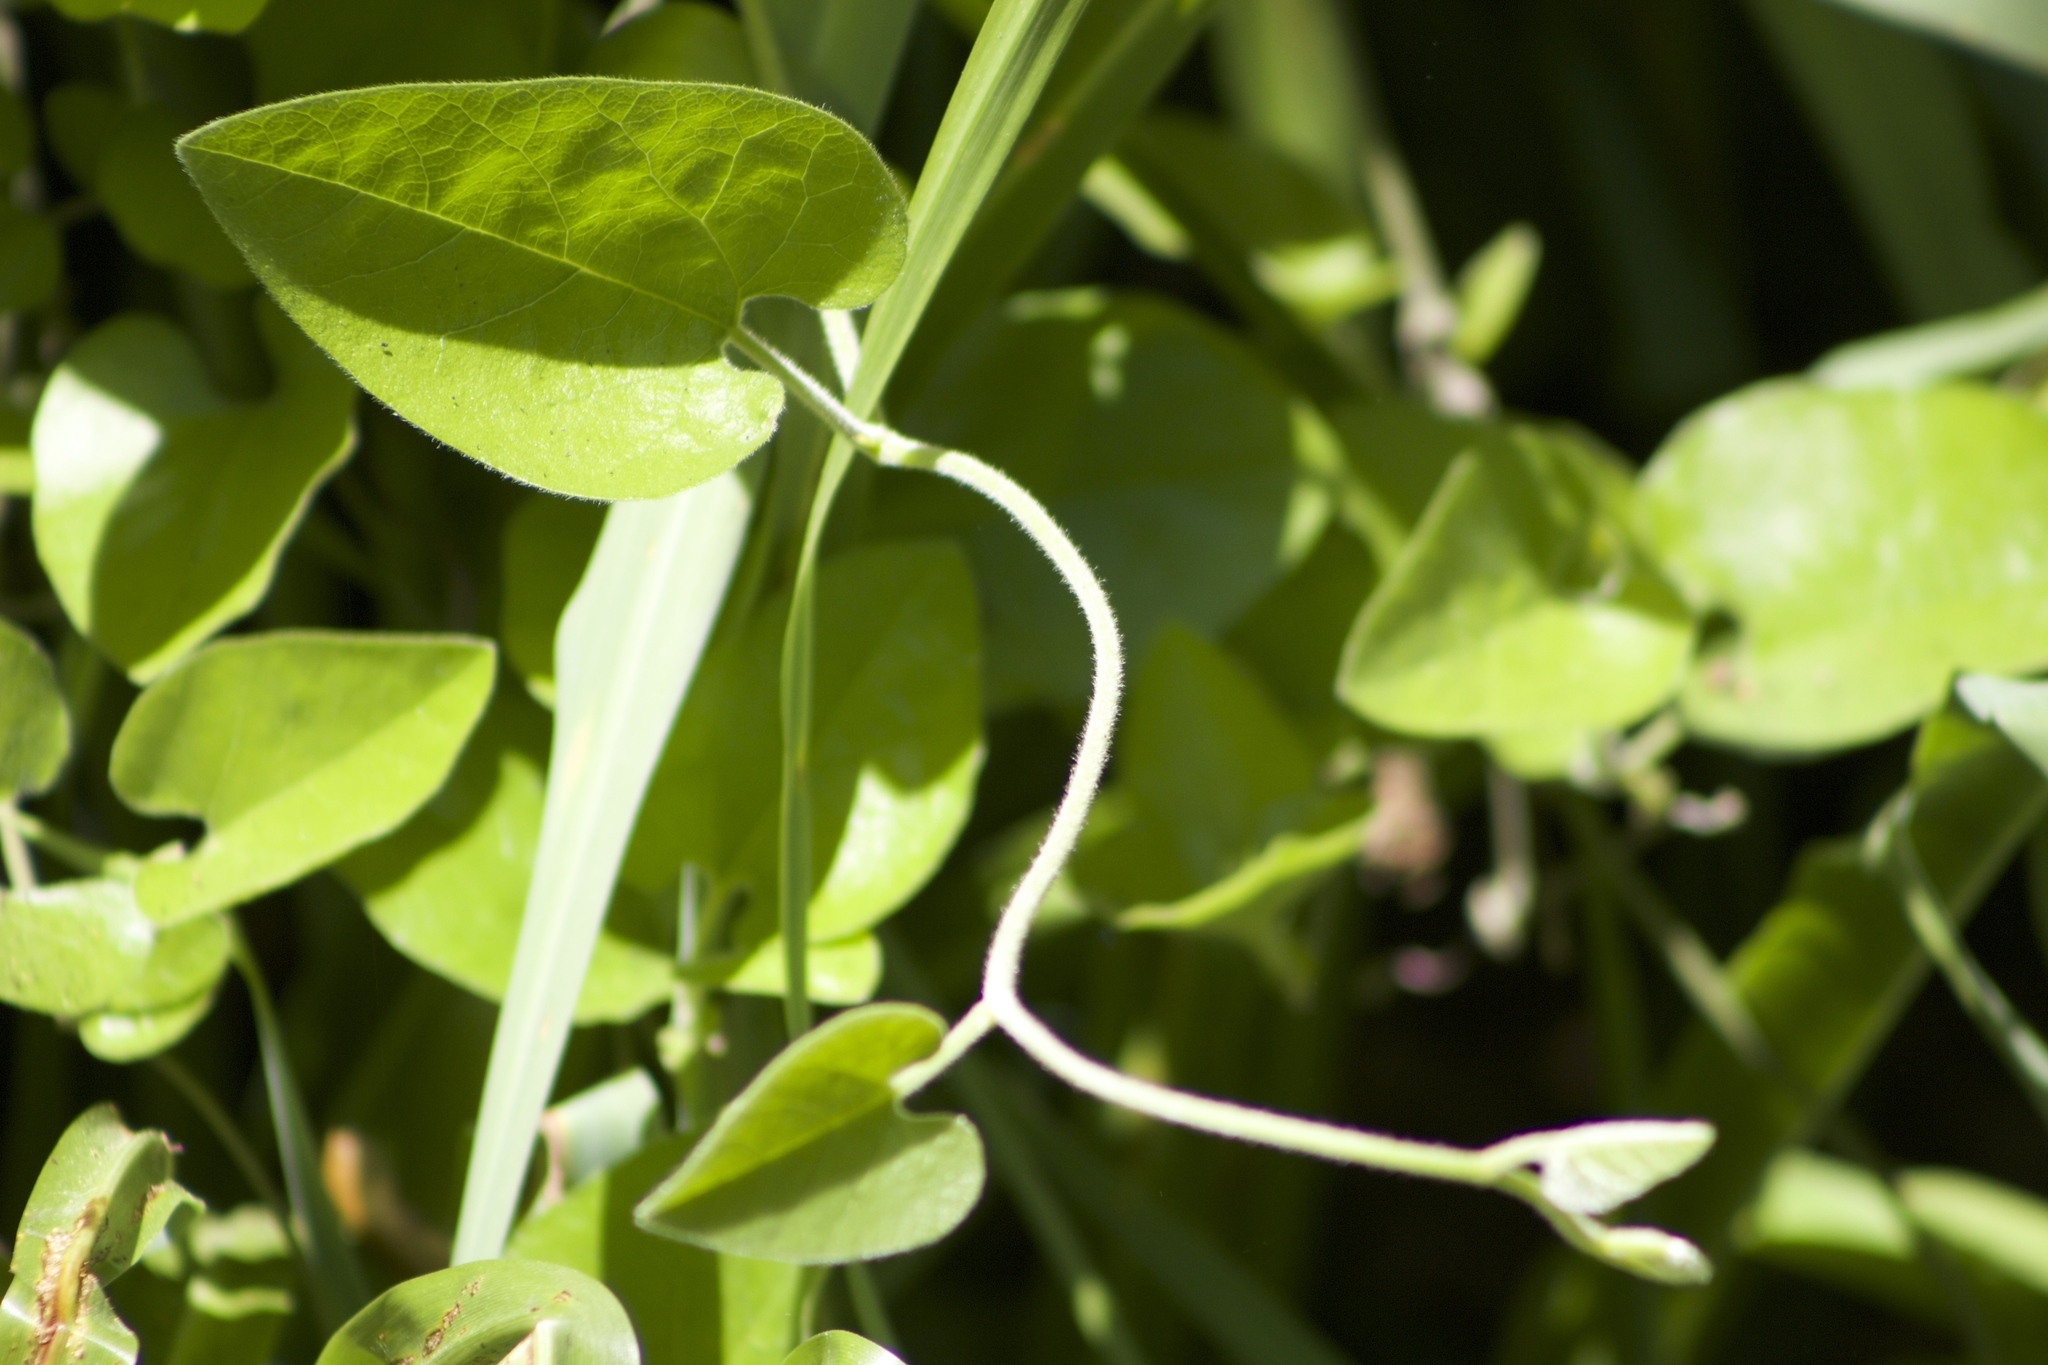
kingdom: Plantae
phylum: Tracheophyta
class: Magnoliopsida
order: Piperales
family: Aristolochiaceae
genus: Isotrema
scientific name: Isotrema californicum
